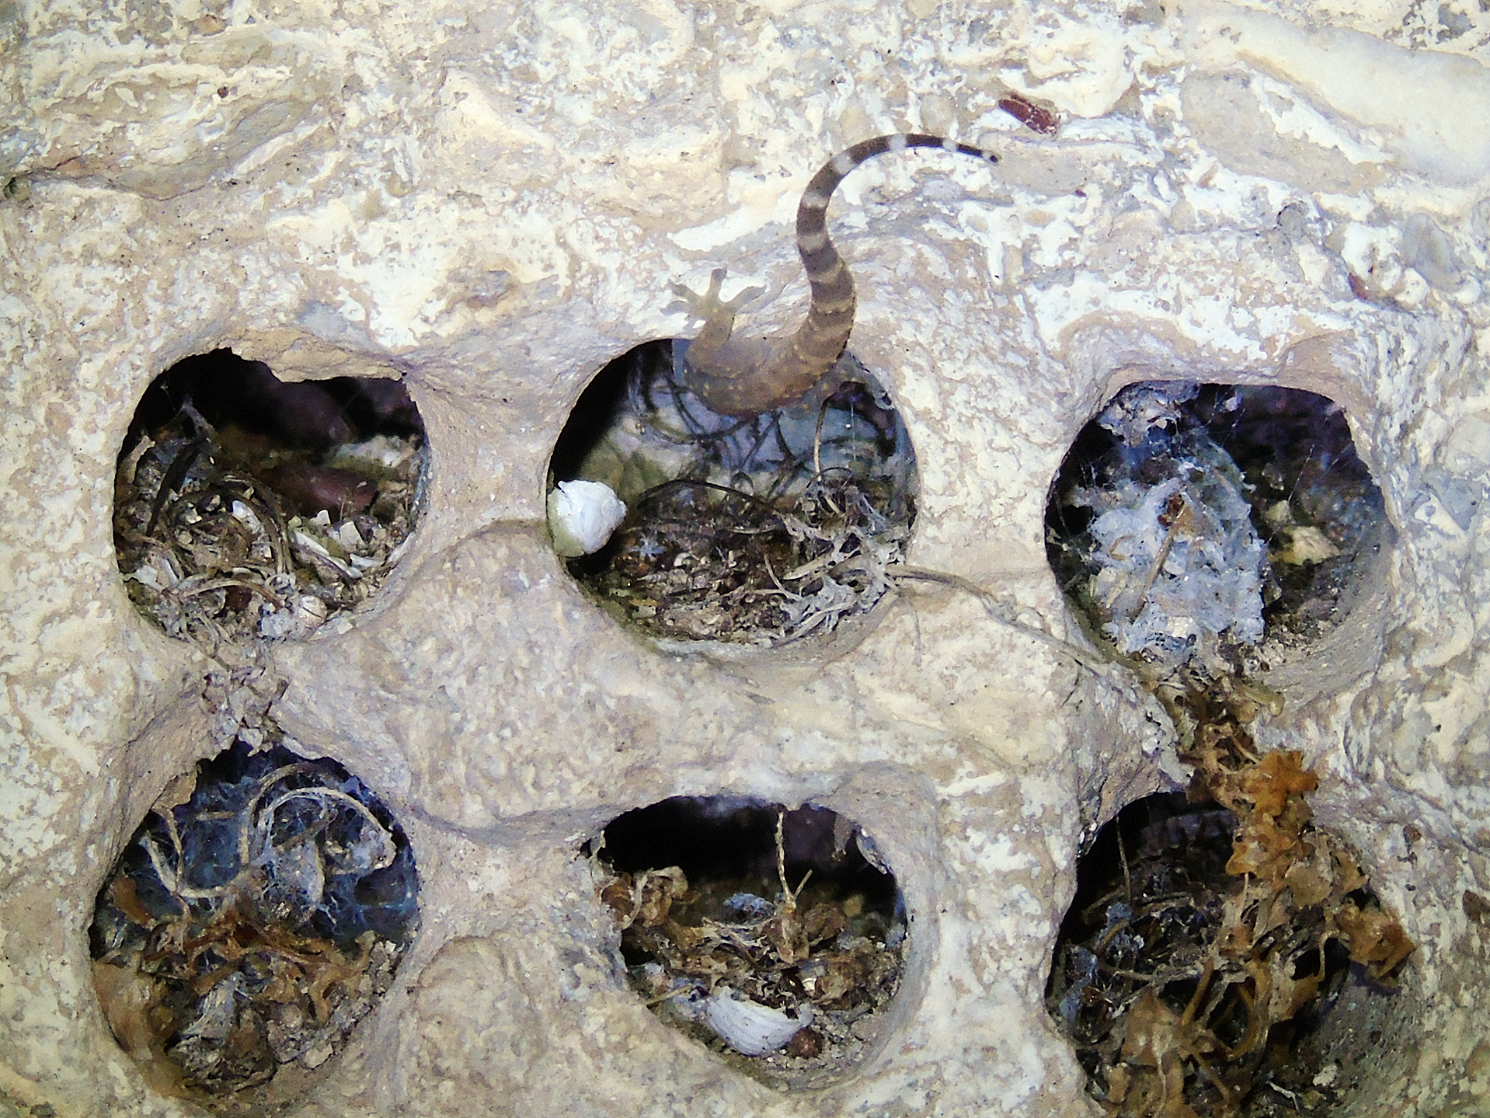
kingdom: Animalia
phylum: Chordata
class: Squamata
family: Gekkonidae
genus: Hemidactylus
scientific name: Hemidactylus turcicus
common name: Turkish gecko
